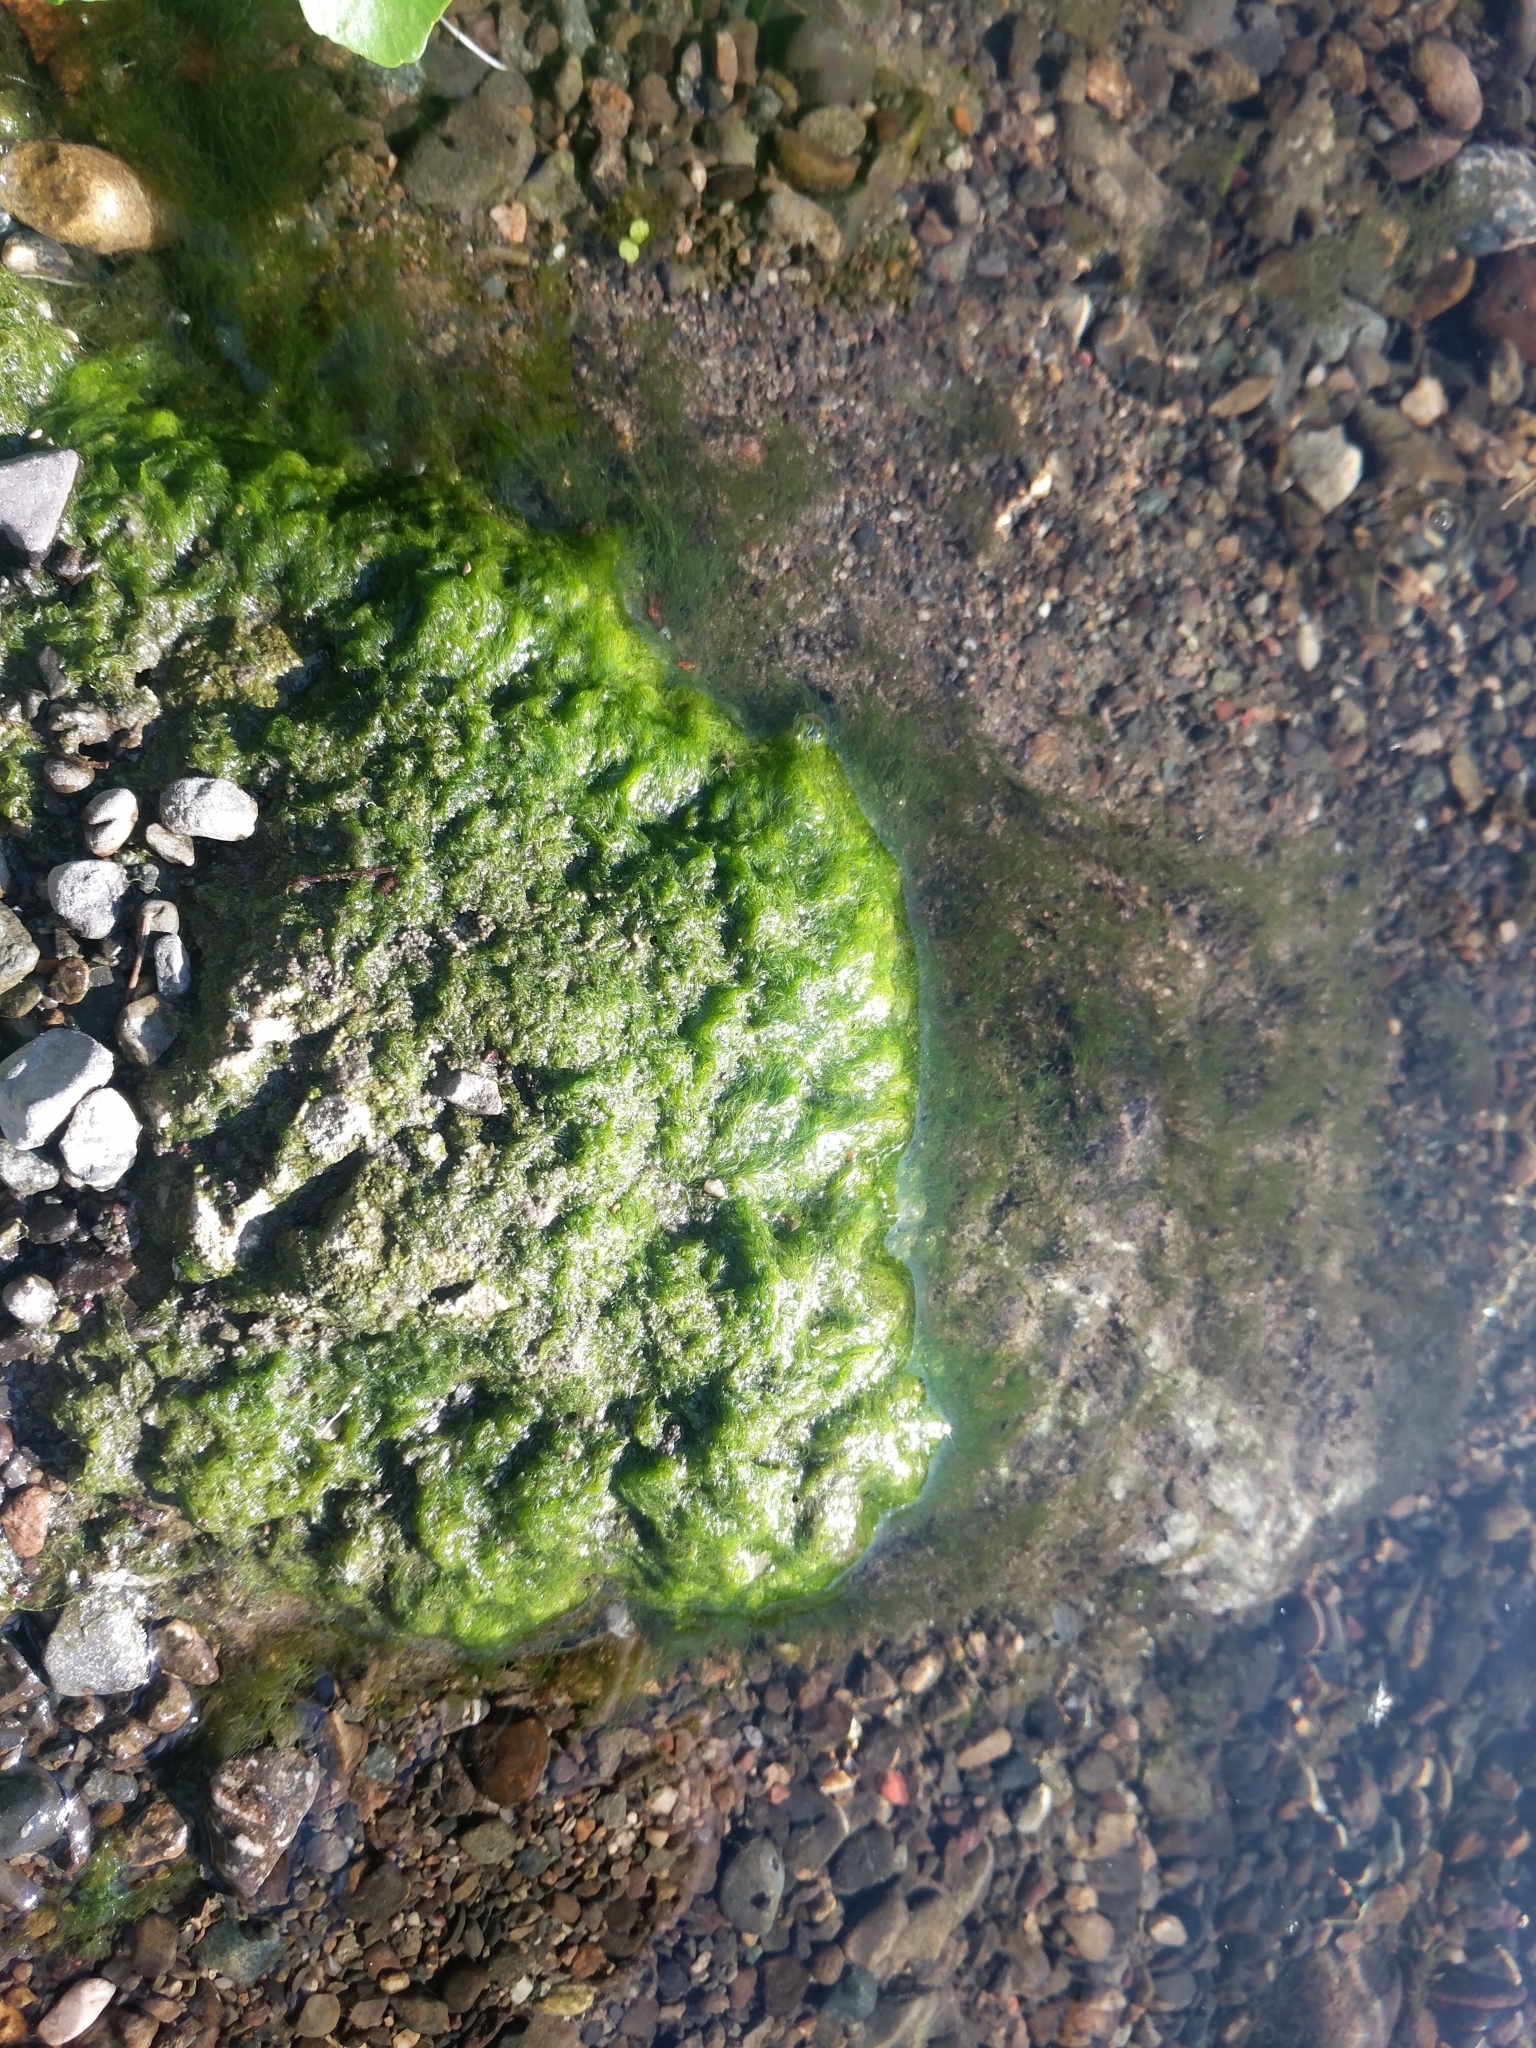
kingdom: Plantae
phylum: Chlorophyta
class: Ulvophyceae
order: Ulvales
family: Ulvaceae
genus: Ulva
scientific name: Ulva intestinalis
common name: Gut weed
